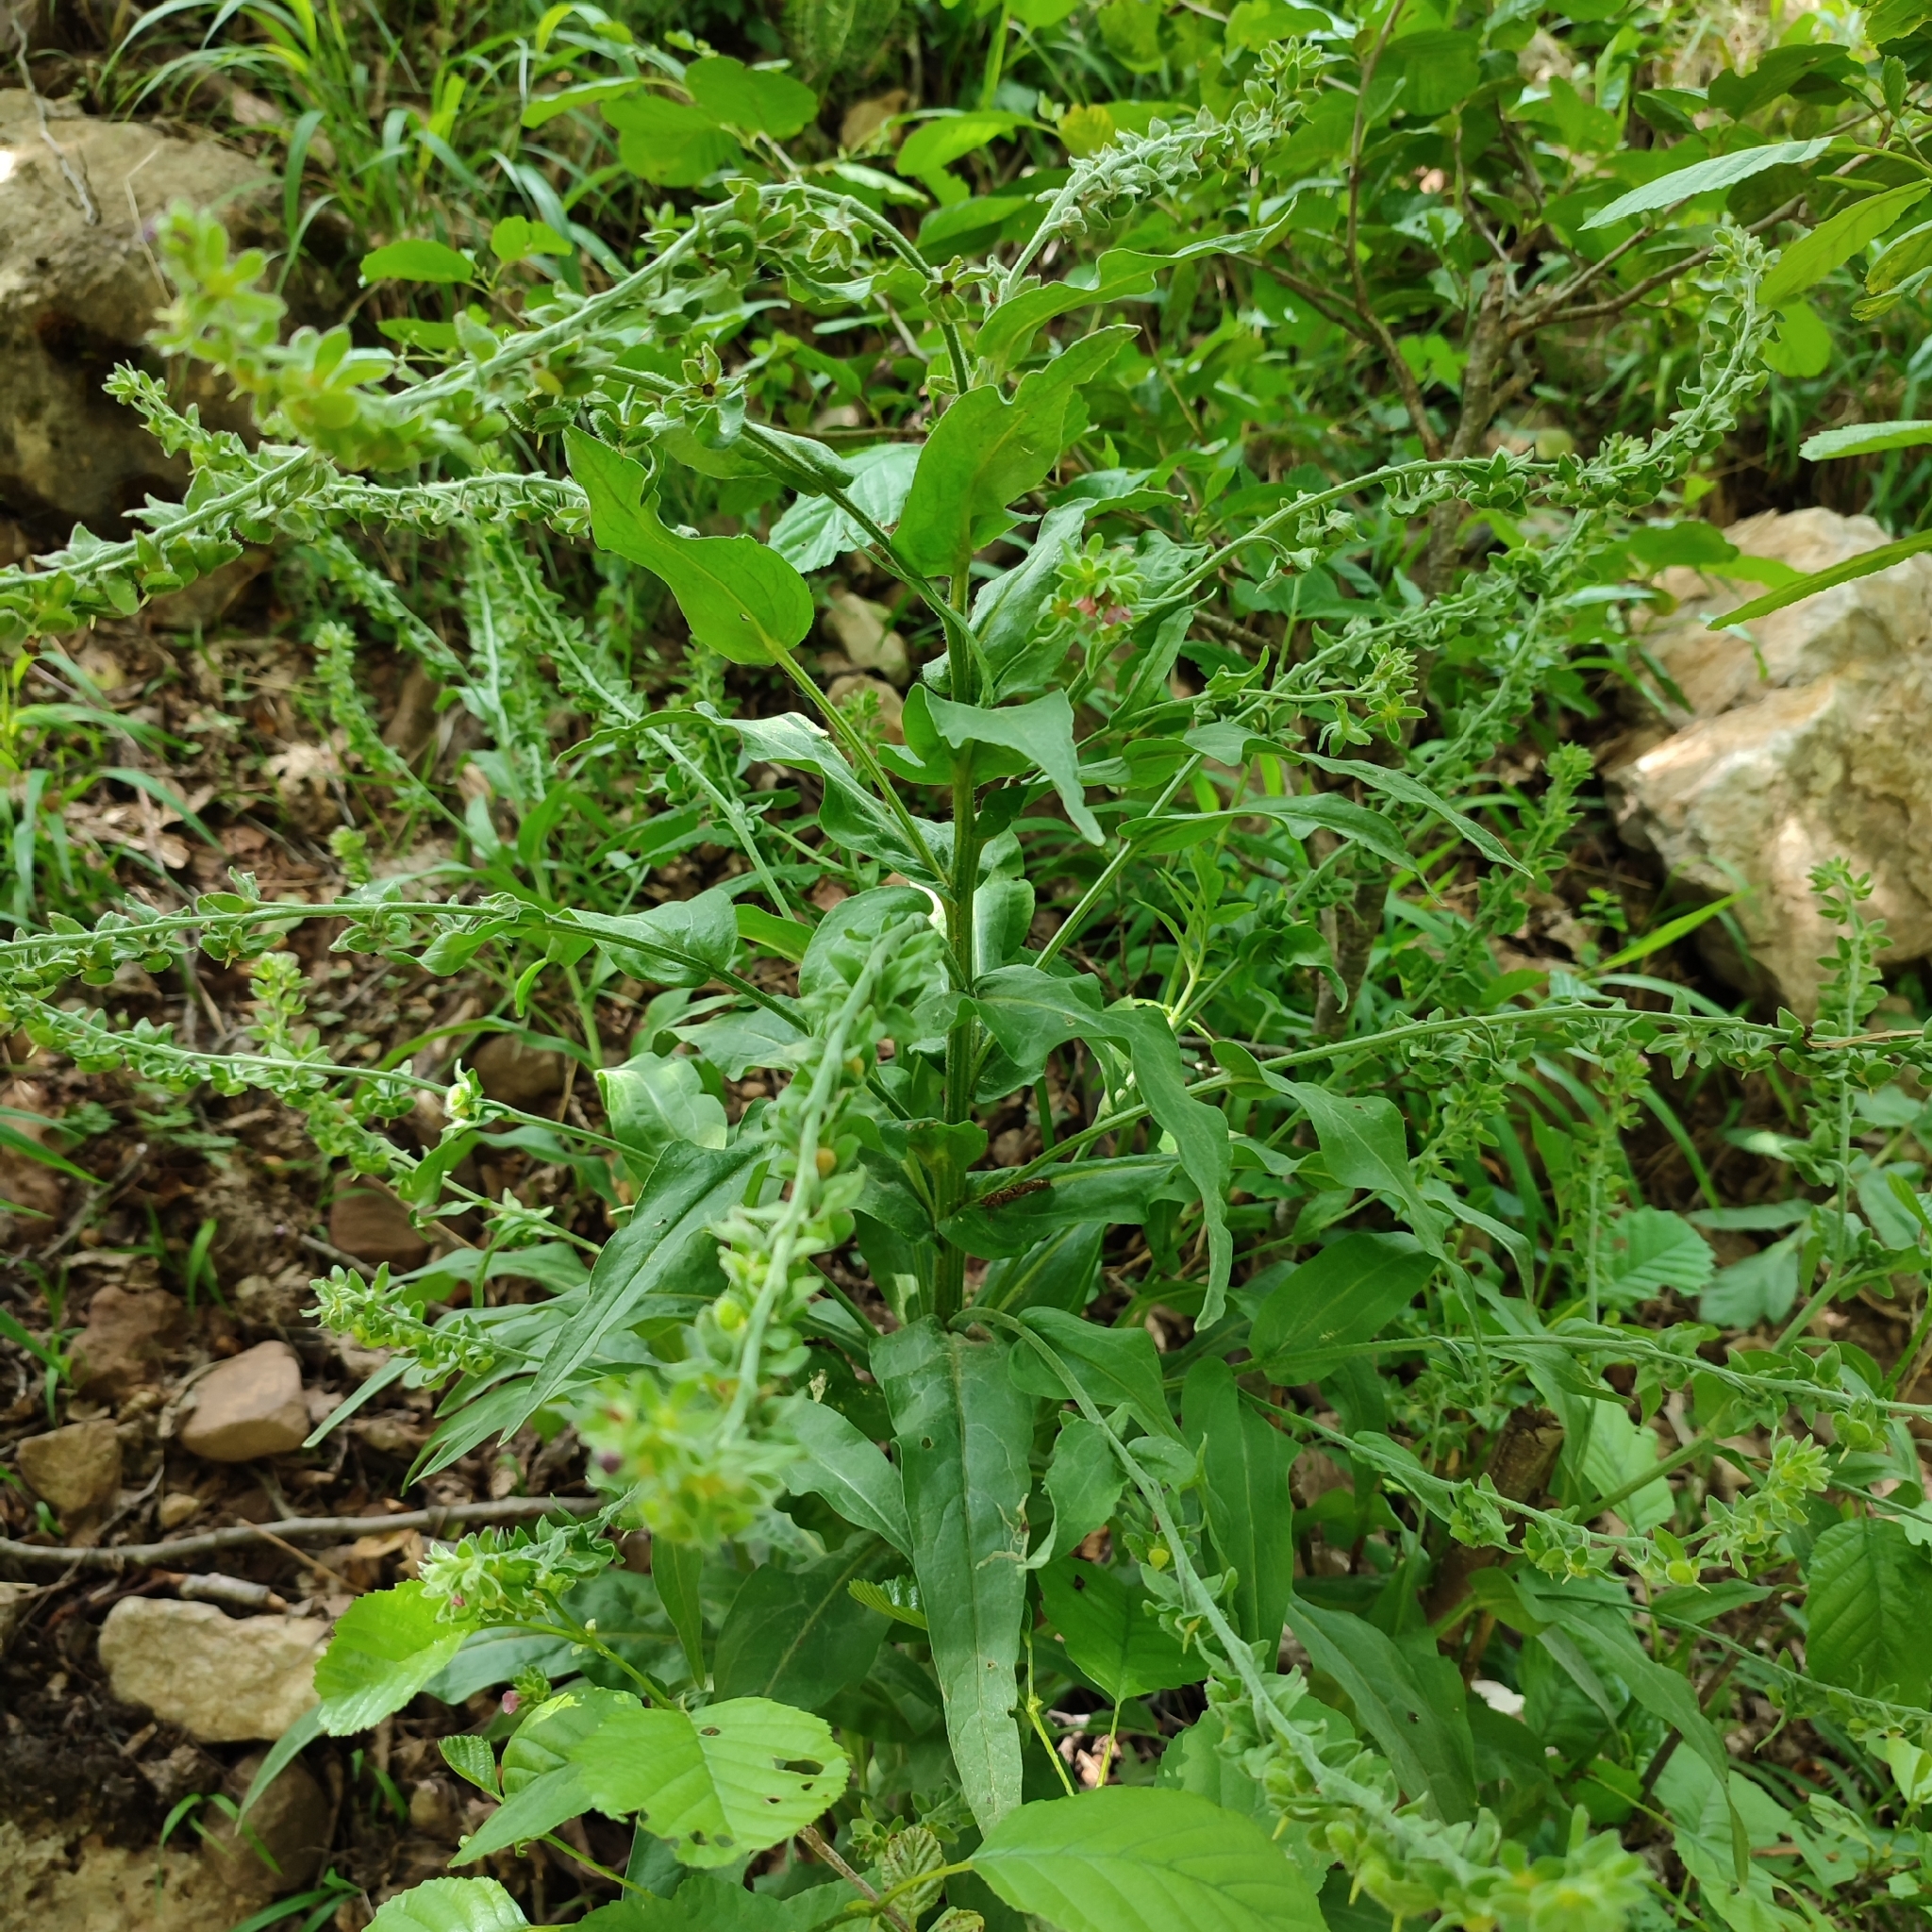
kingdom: Plantae
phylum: Tracheophyta
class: Magnoliopsida
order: Boraginales
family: Boraginaceae
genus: Cynoglossum
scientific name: Cynoglossum officinale
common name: Hound's-tongue
